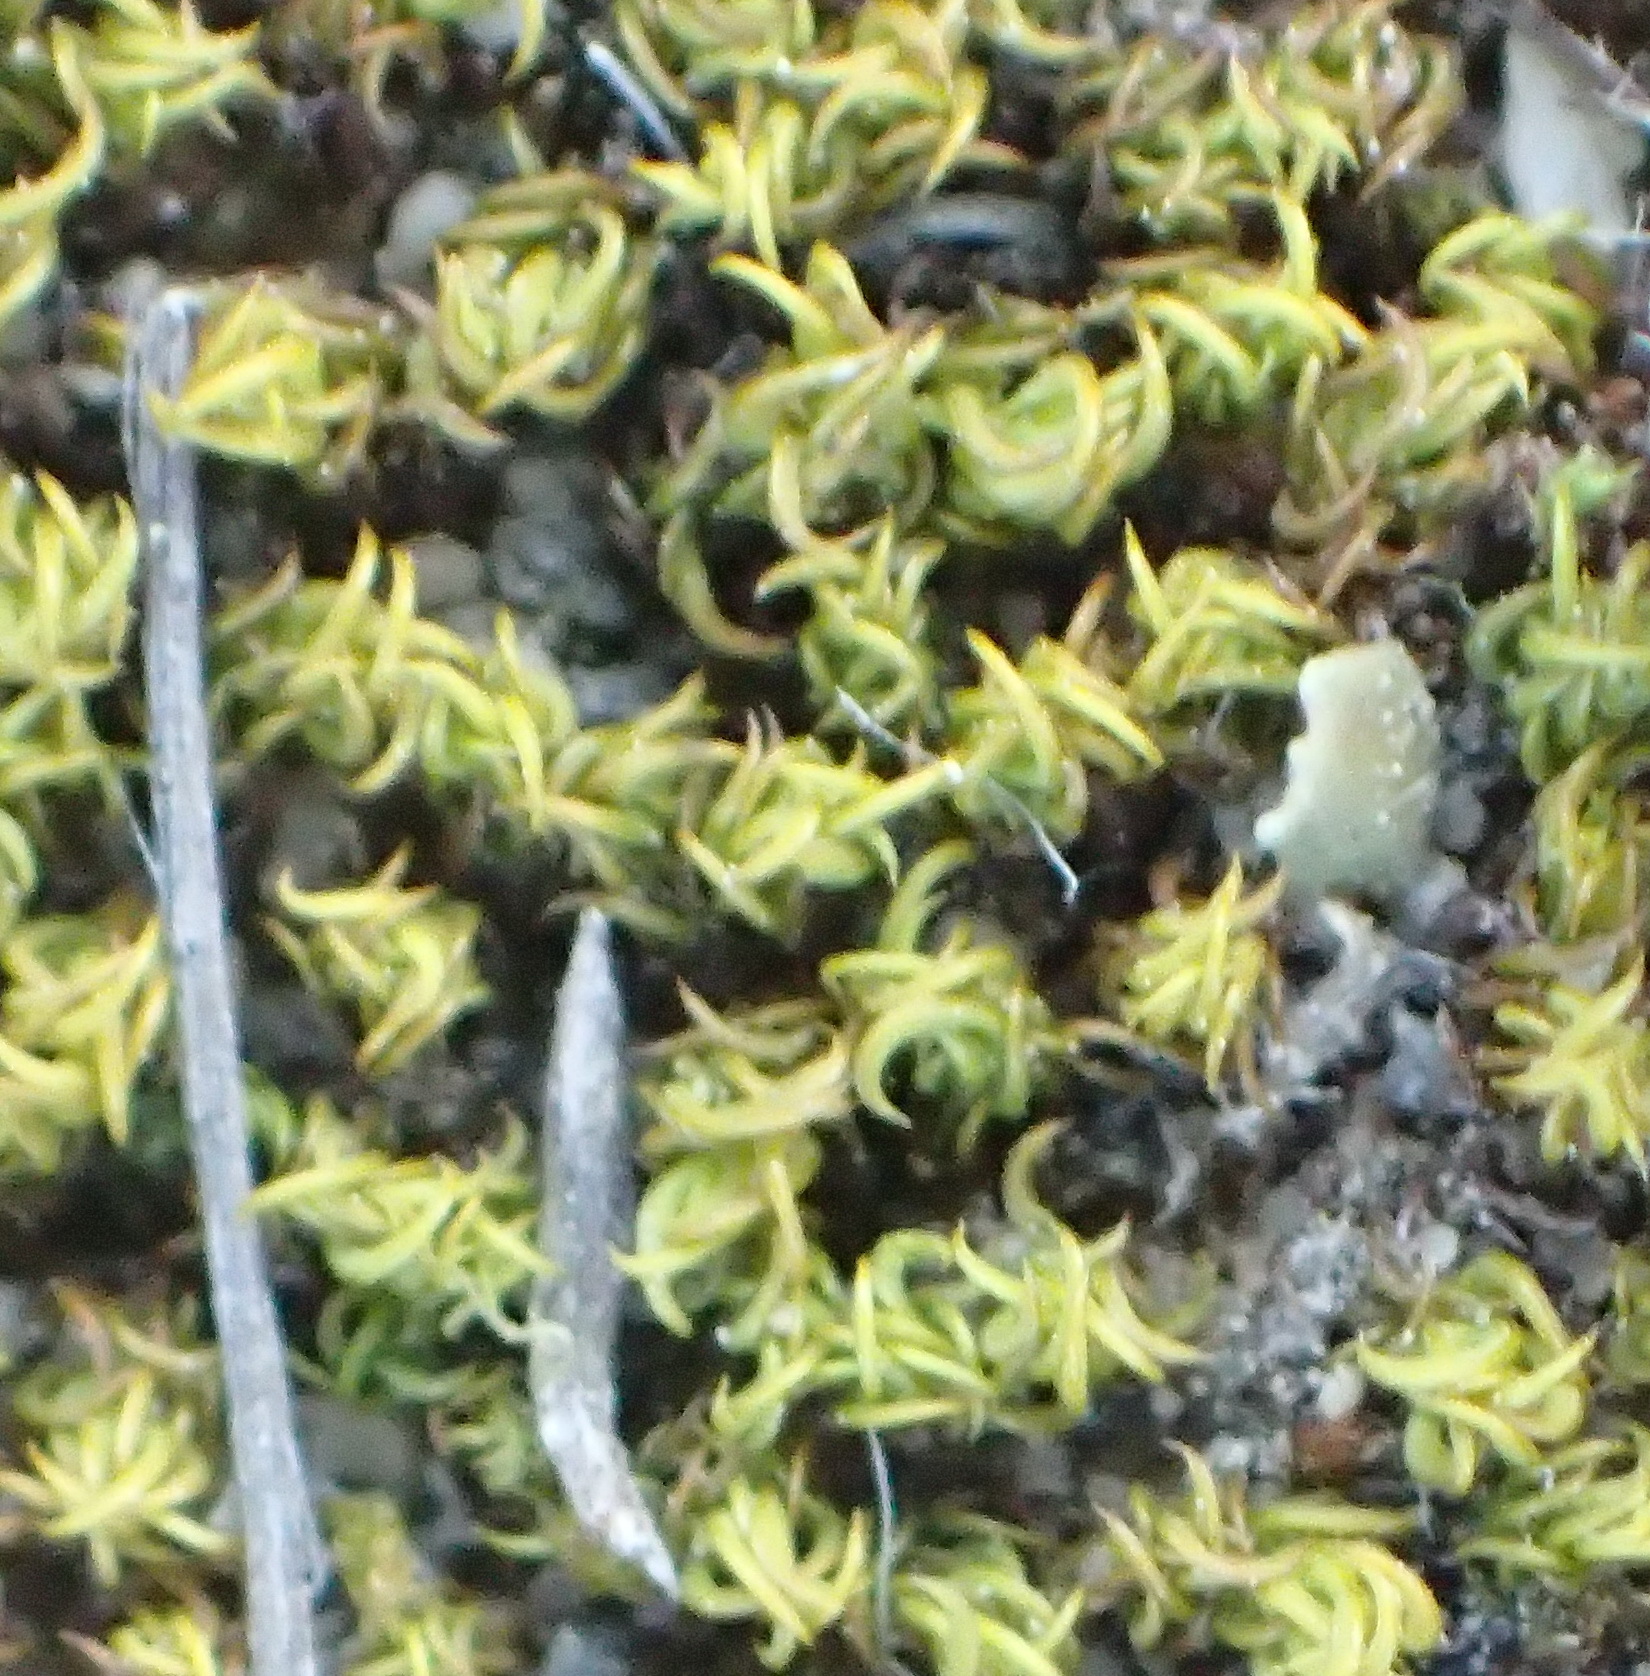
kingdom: Plantae
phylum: Bryophyta
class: Bryopsida
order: Pottiales
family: Pottiaceae
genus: Trichostomum
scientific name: Trichostomum brachydontium
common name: Variable crisp-moss
